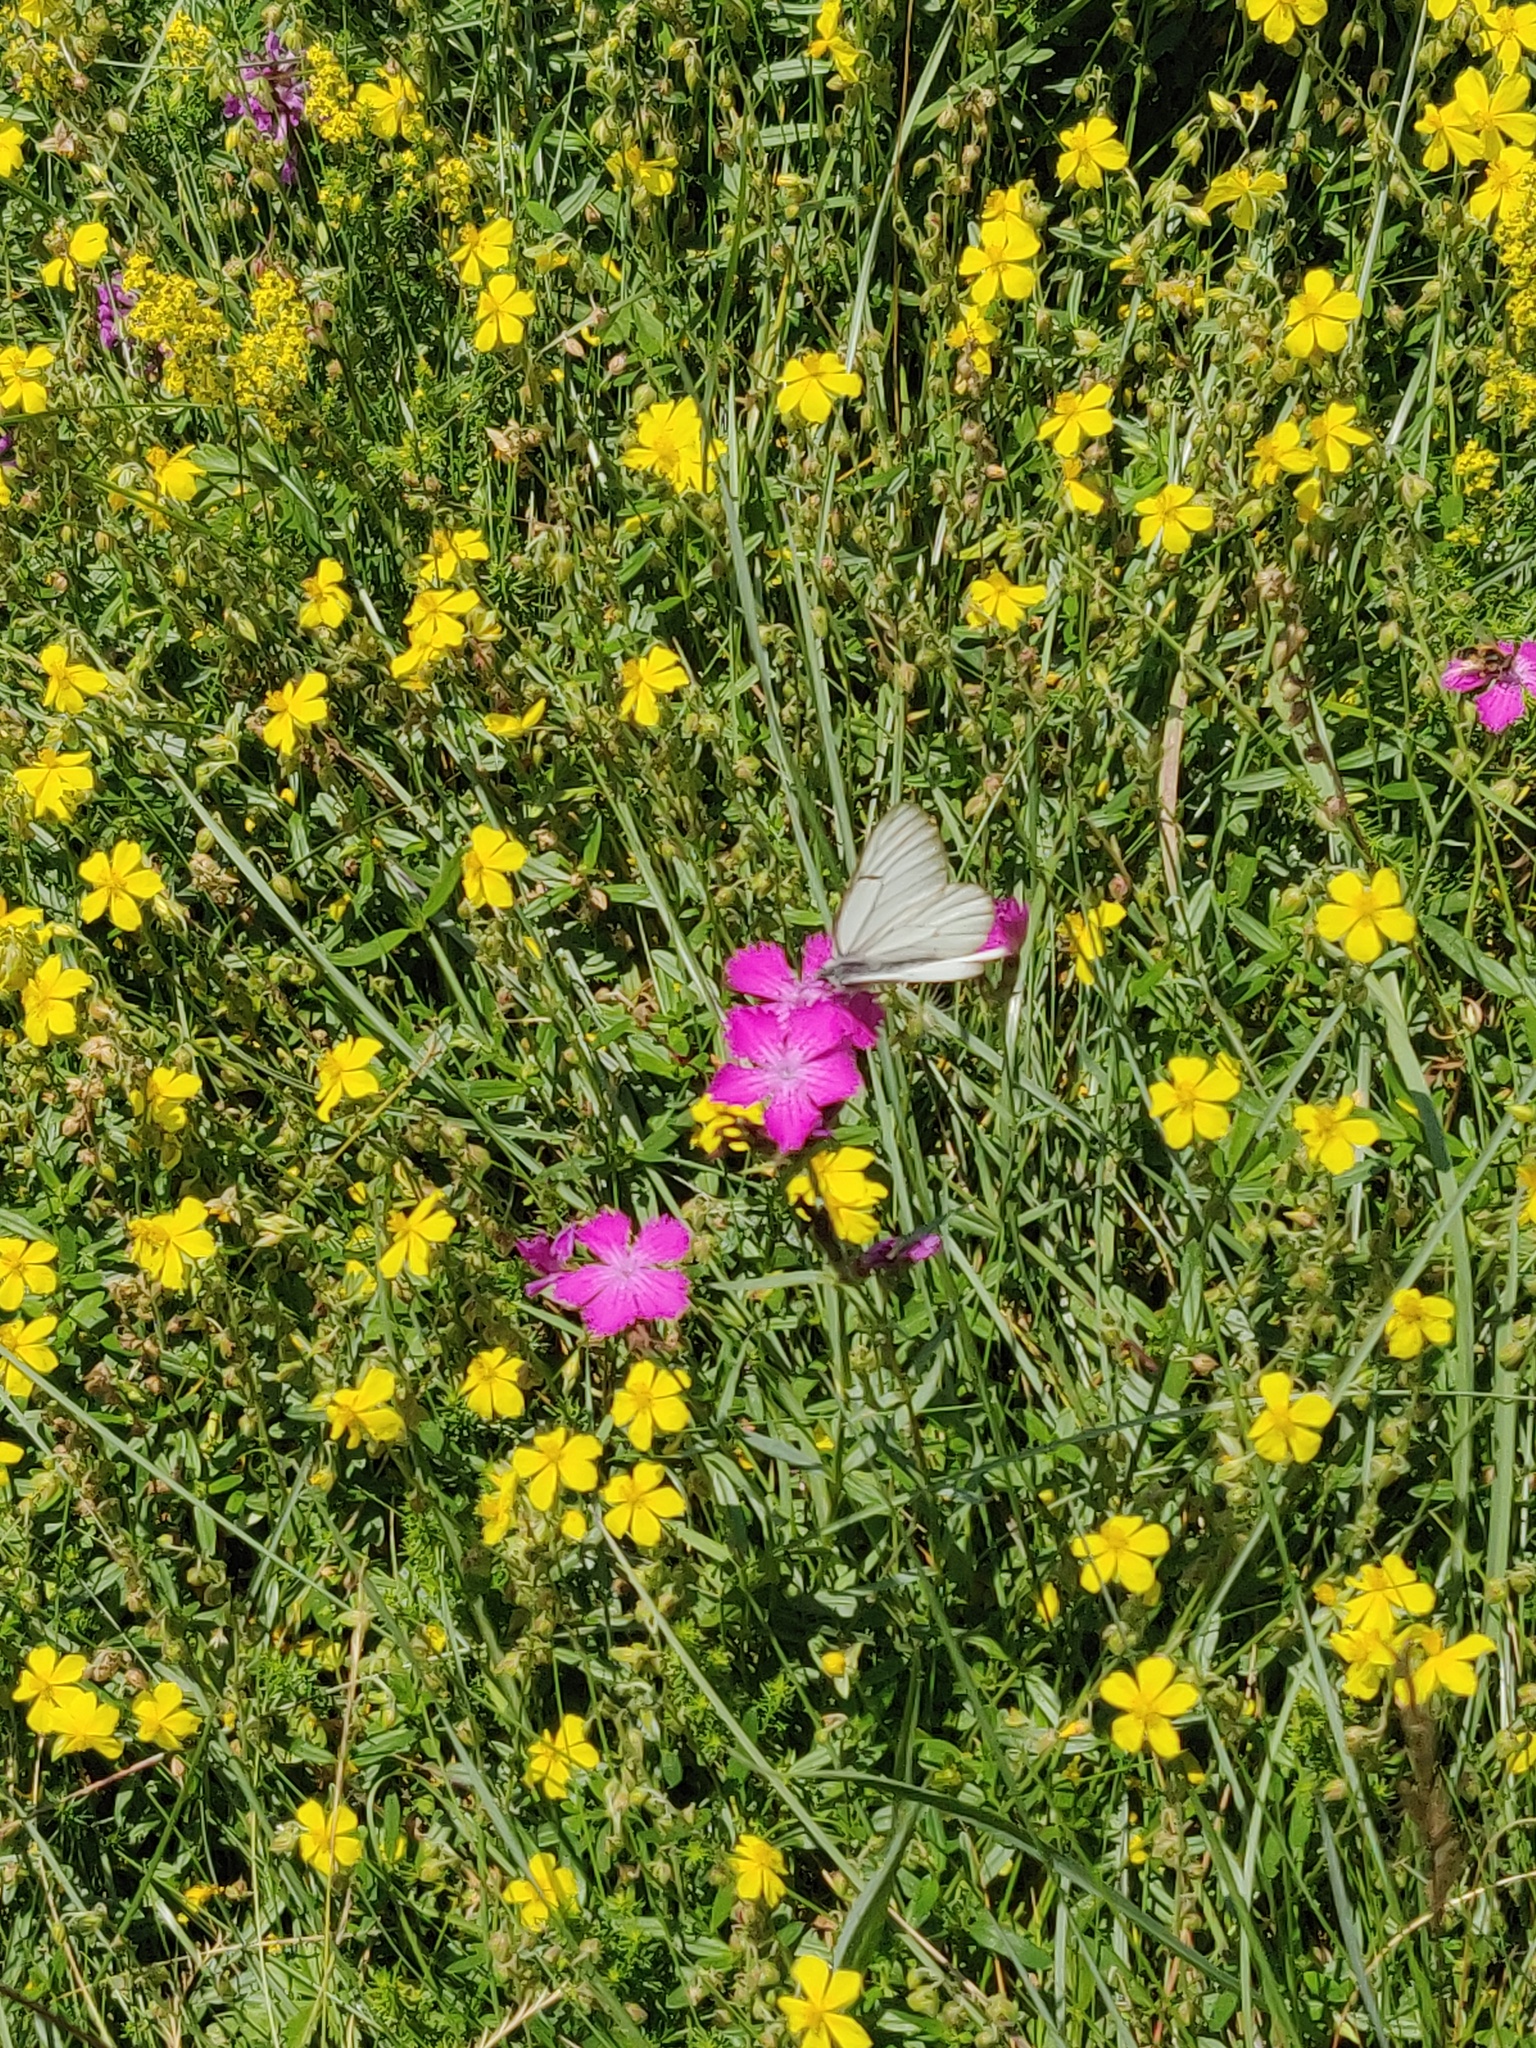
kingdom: Animalia
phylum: Arthropoda
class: Insecta
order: Lepidoptera
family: Pieridae
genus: Aporia
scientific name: Aporia crataegi
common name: Black-veined white
